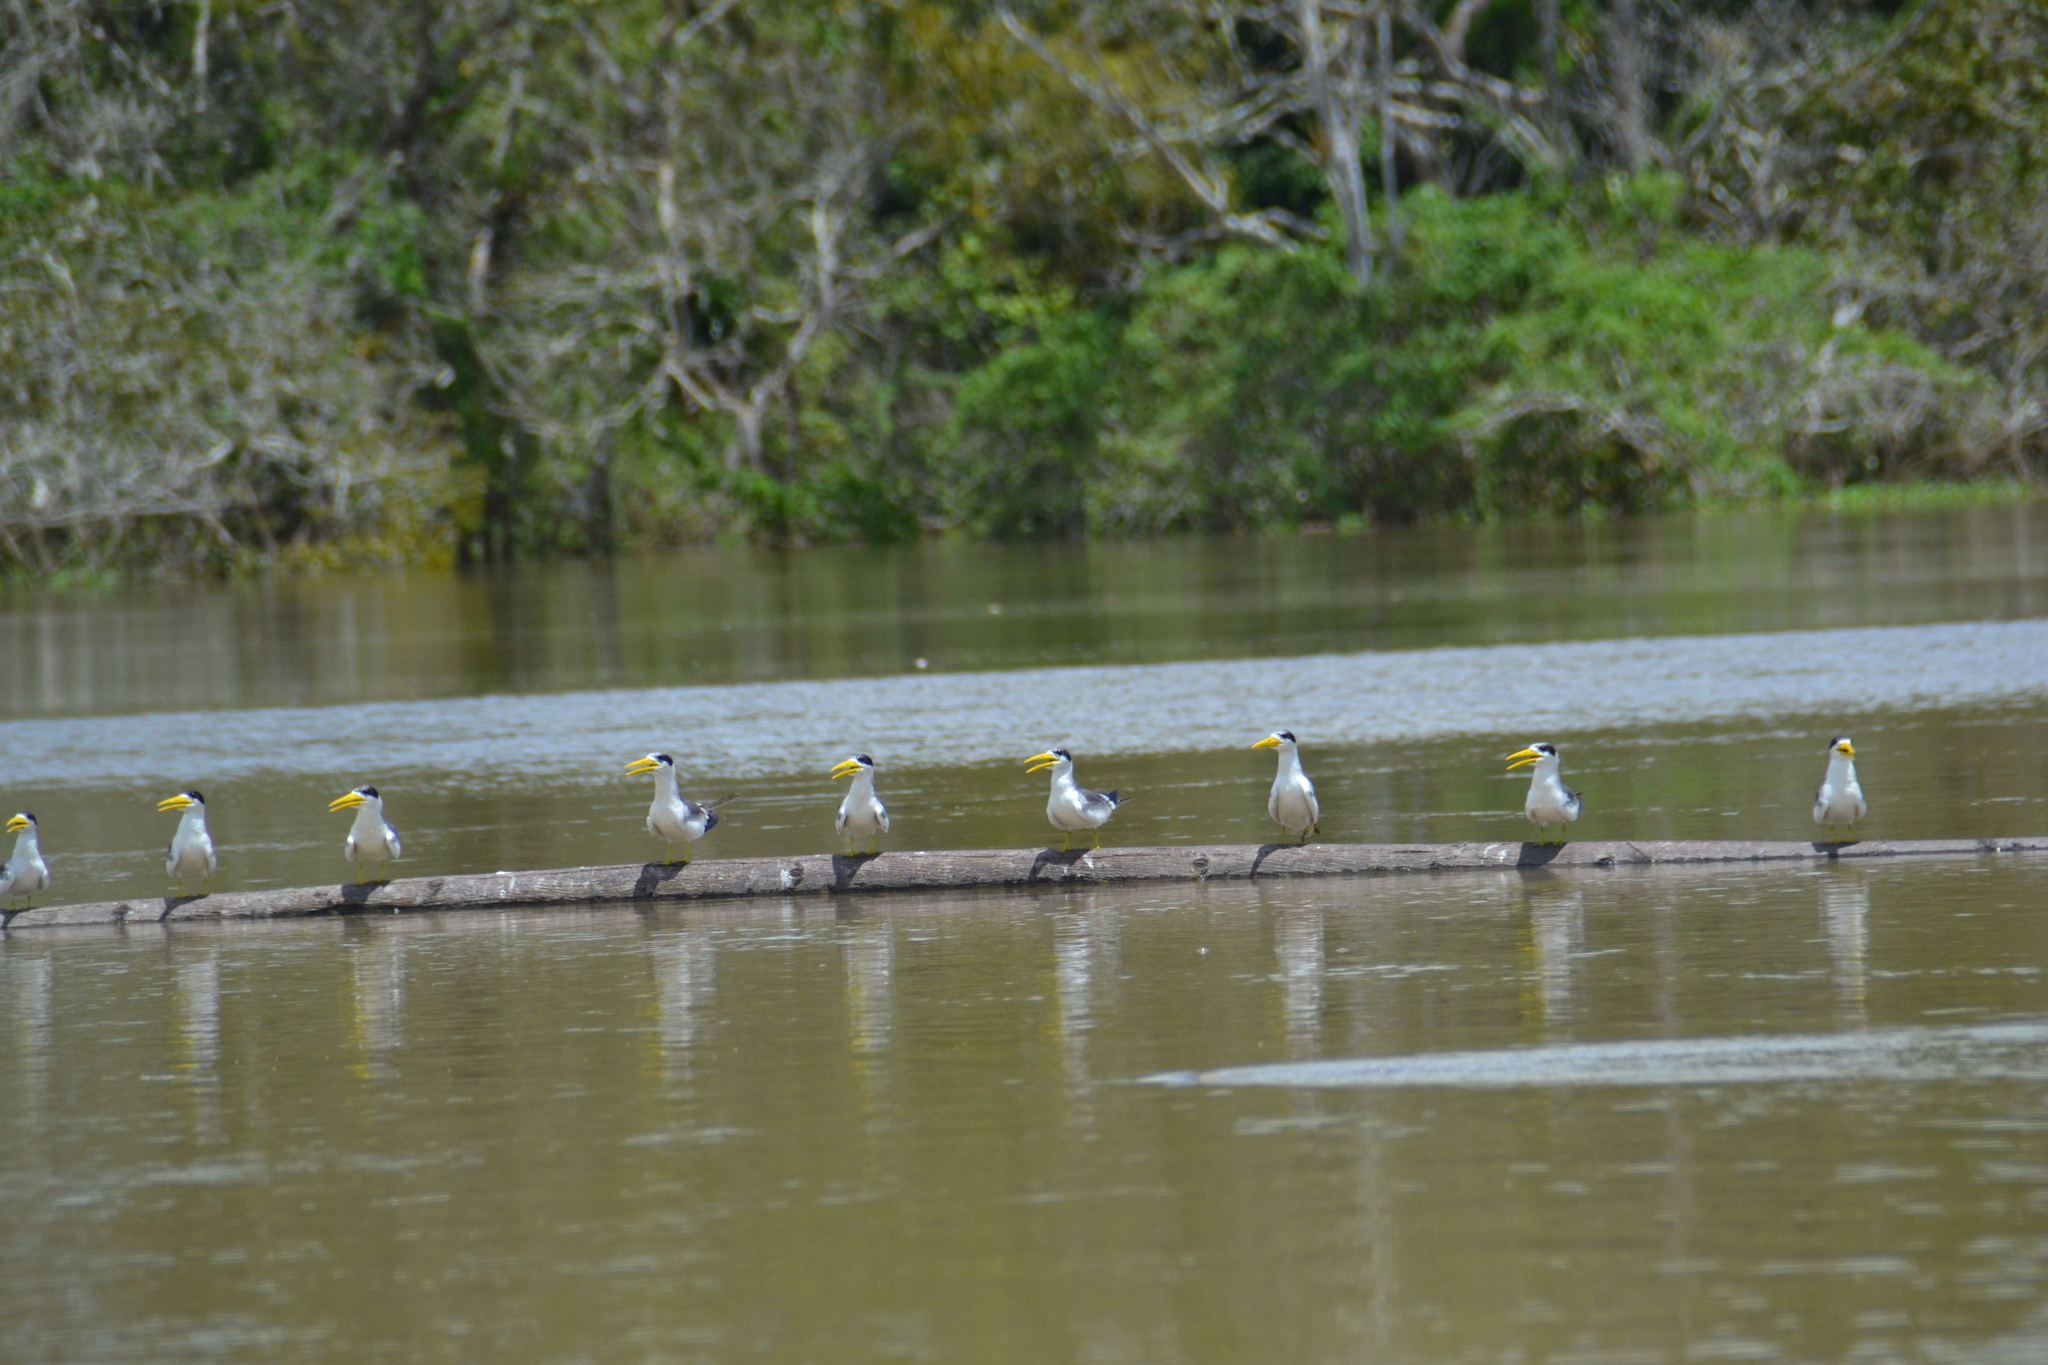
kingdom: Animalia
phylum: Chordata
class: Aves
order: Charadriiformes
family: Laridae
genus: Phaetusa
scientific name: Phaetusa simplex
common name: Large-billed tern
